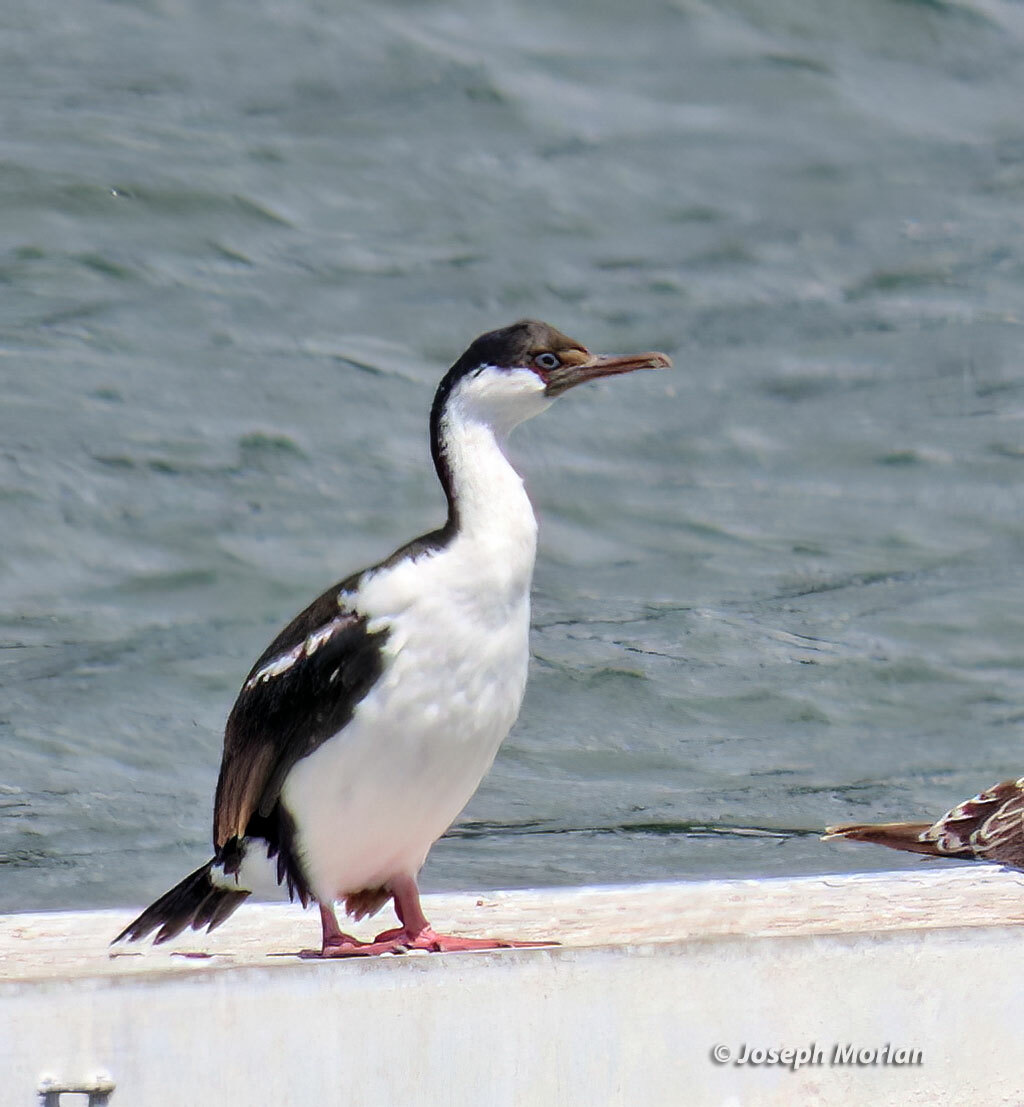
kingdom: Animalia
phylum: Chordata
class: Aves
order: Suliformes
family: Phalacrocoracidae
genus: Leucocarbo
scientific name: Leucocarbo atriceps
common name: Imperial shag
